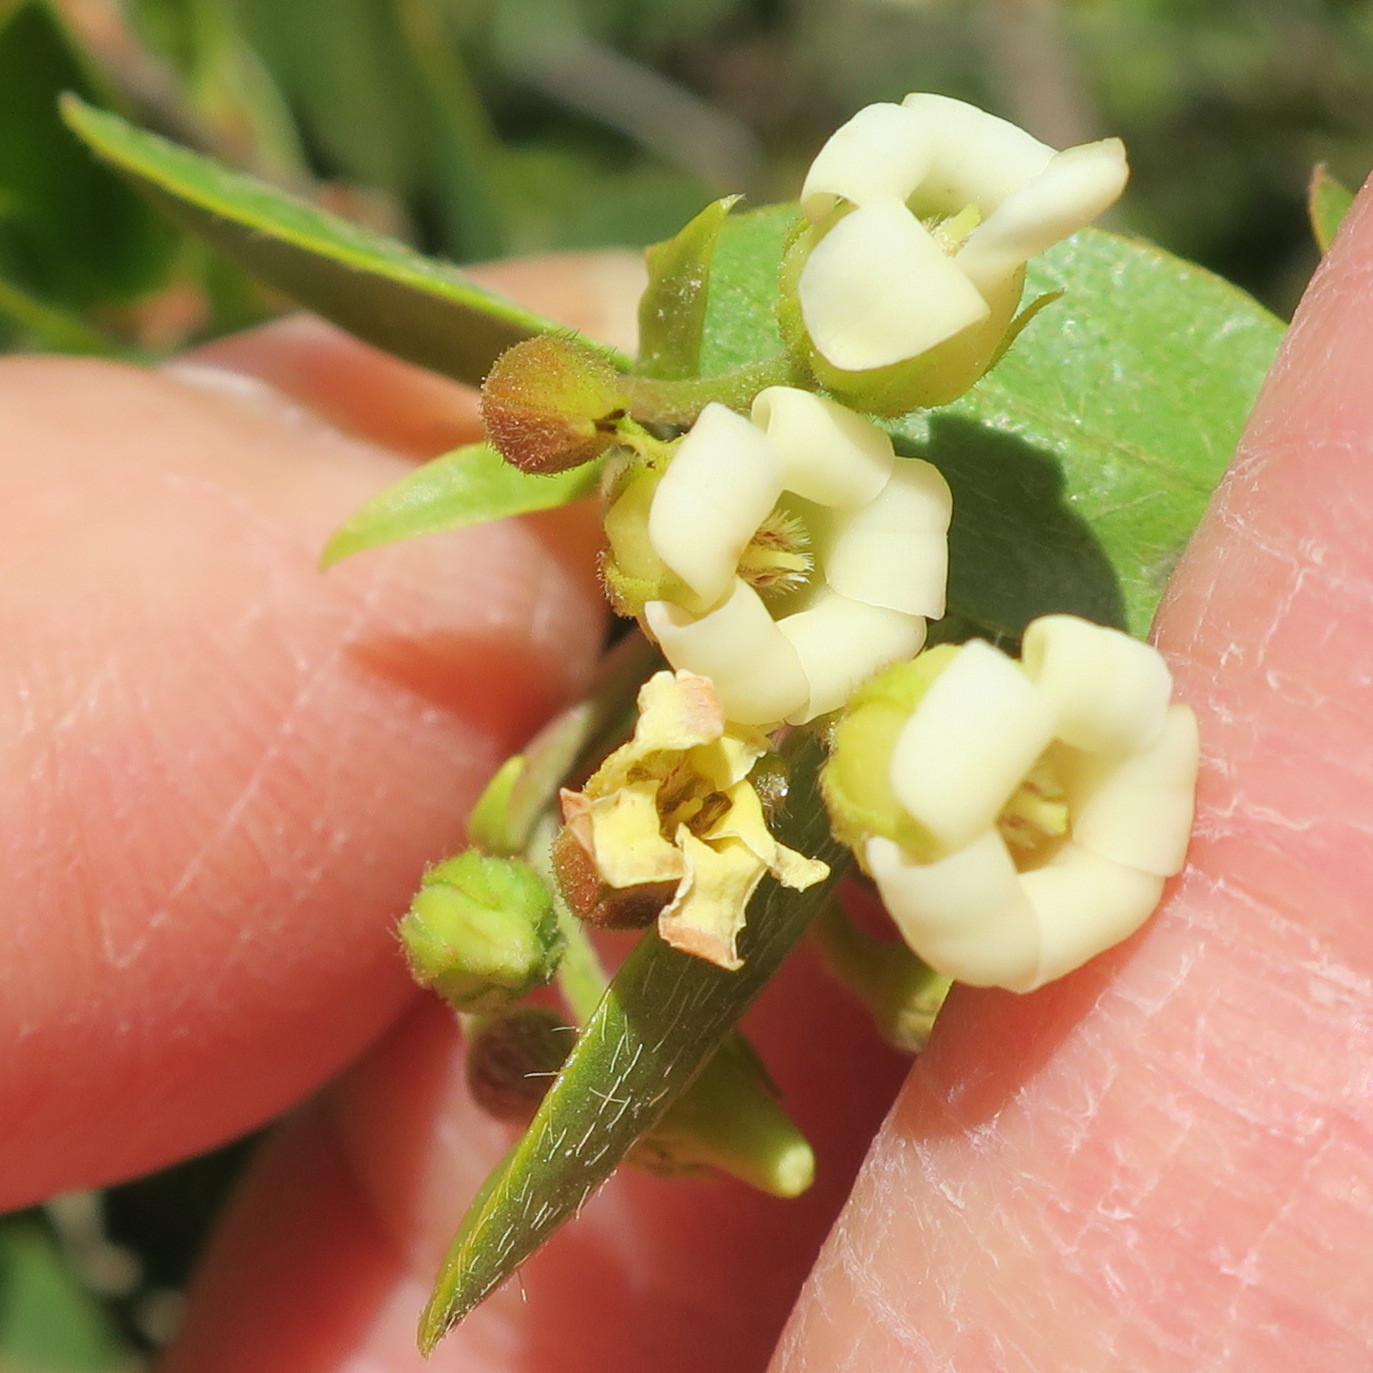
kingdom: Plantae
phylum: Tracheophyta
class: Magnoliopsida
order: Ericales
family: Ebenaceae
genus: Diospyros
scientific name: Diospyros glabra
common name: Fynbos star apple
